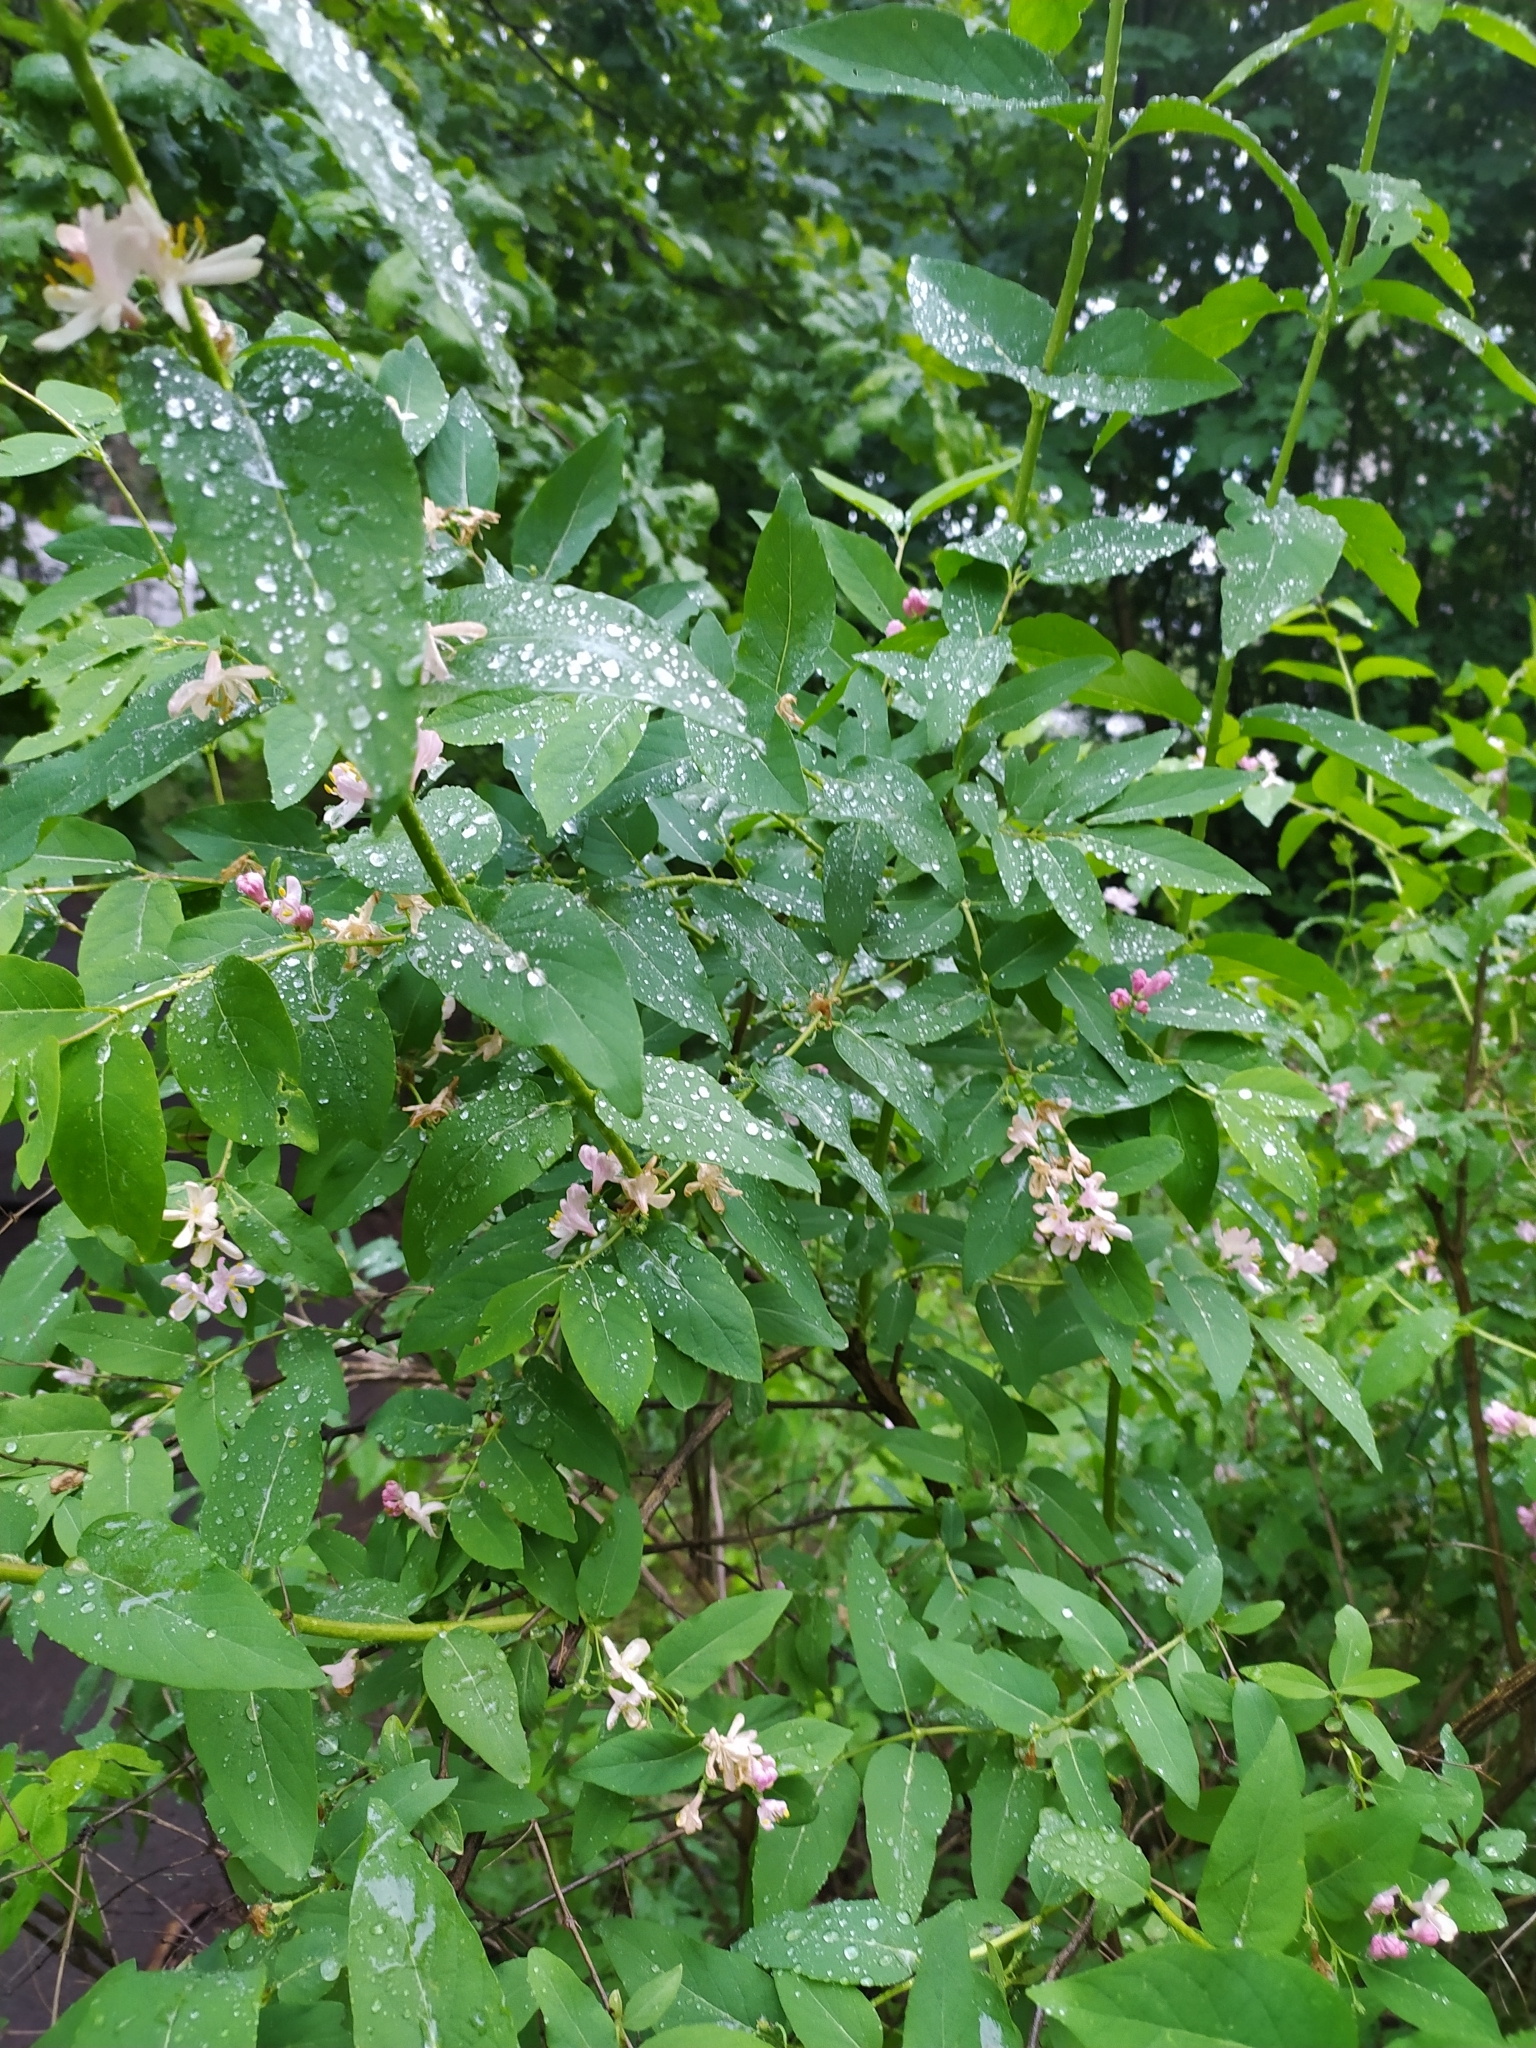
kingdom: Plantae
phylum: Tracheophyta
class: Magnoliopsida
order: Dipsacales
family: Caprifoliaceae
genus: Lonicera
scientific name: Lonicera tatarica
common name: Tatarian honeysuckle
